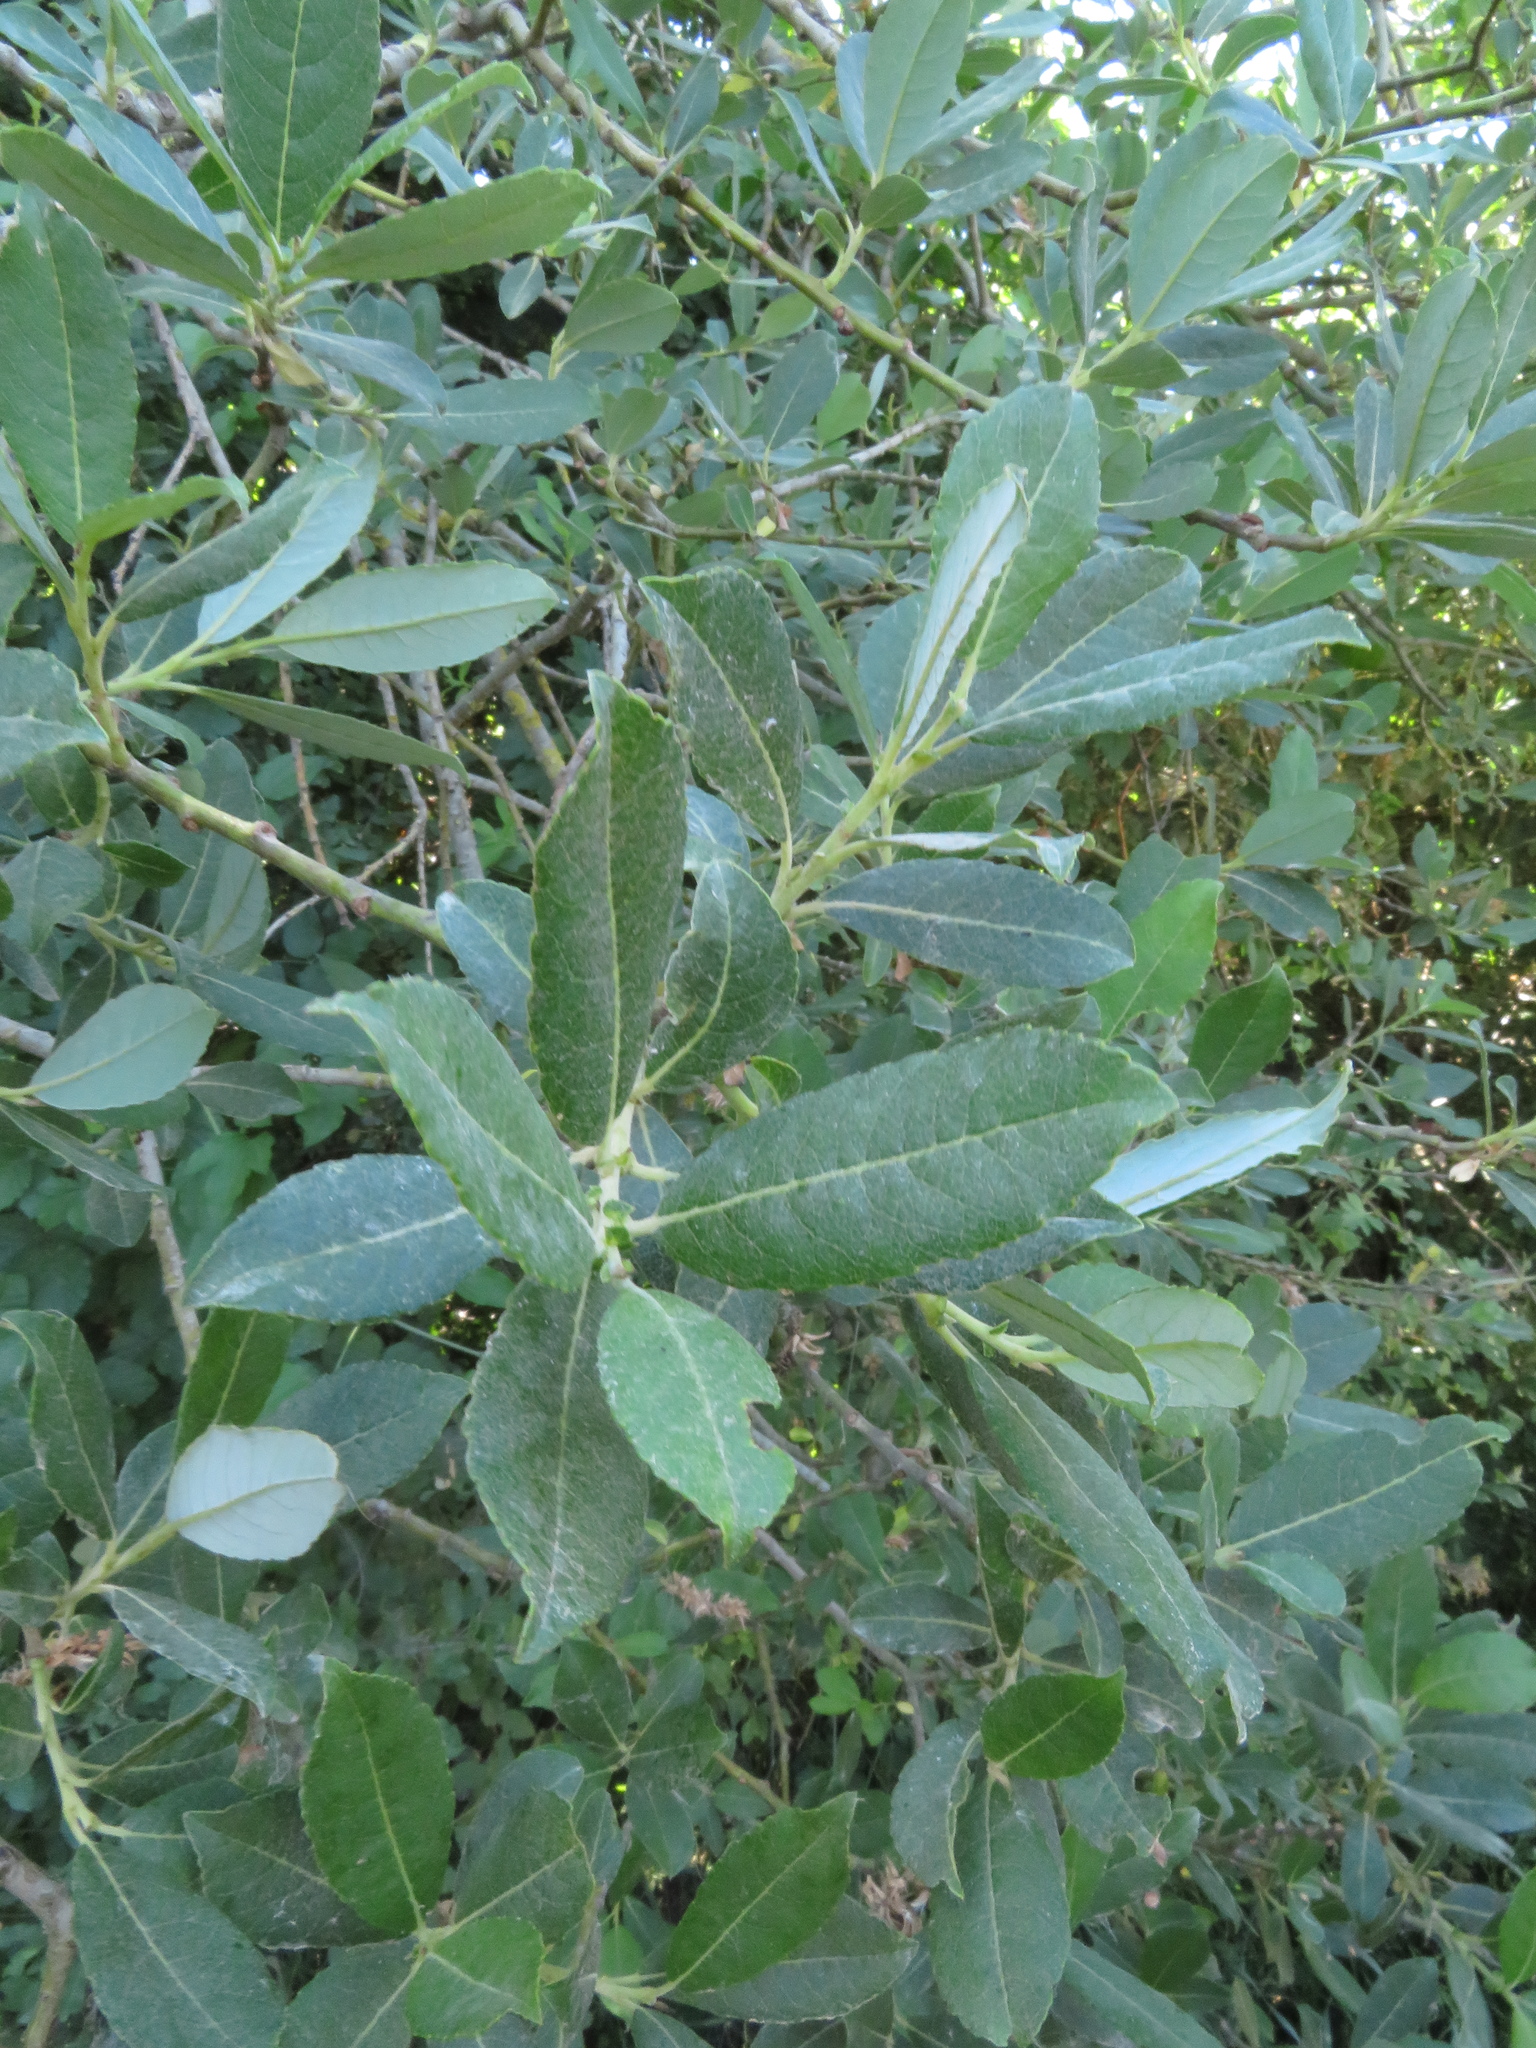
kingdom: Plantae
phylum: Tracheophyta
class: Magnoliopsida
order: Malpighiales
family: Salicaceae
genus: Salix
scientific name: Salix apennina
